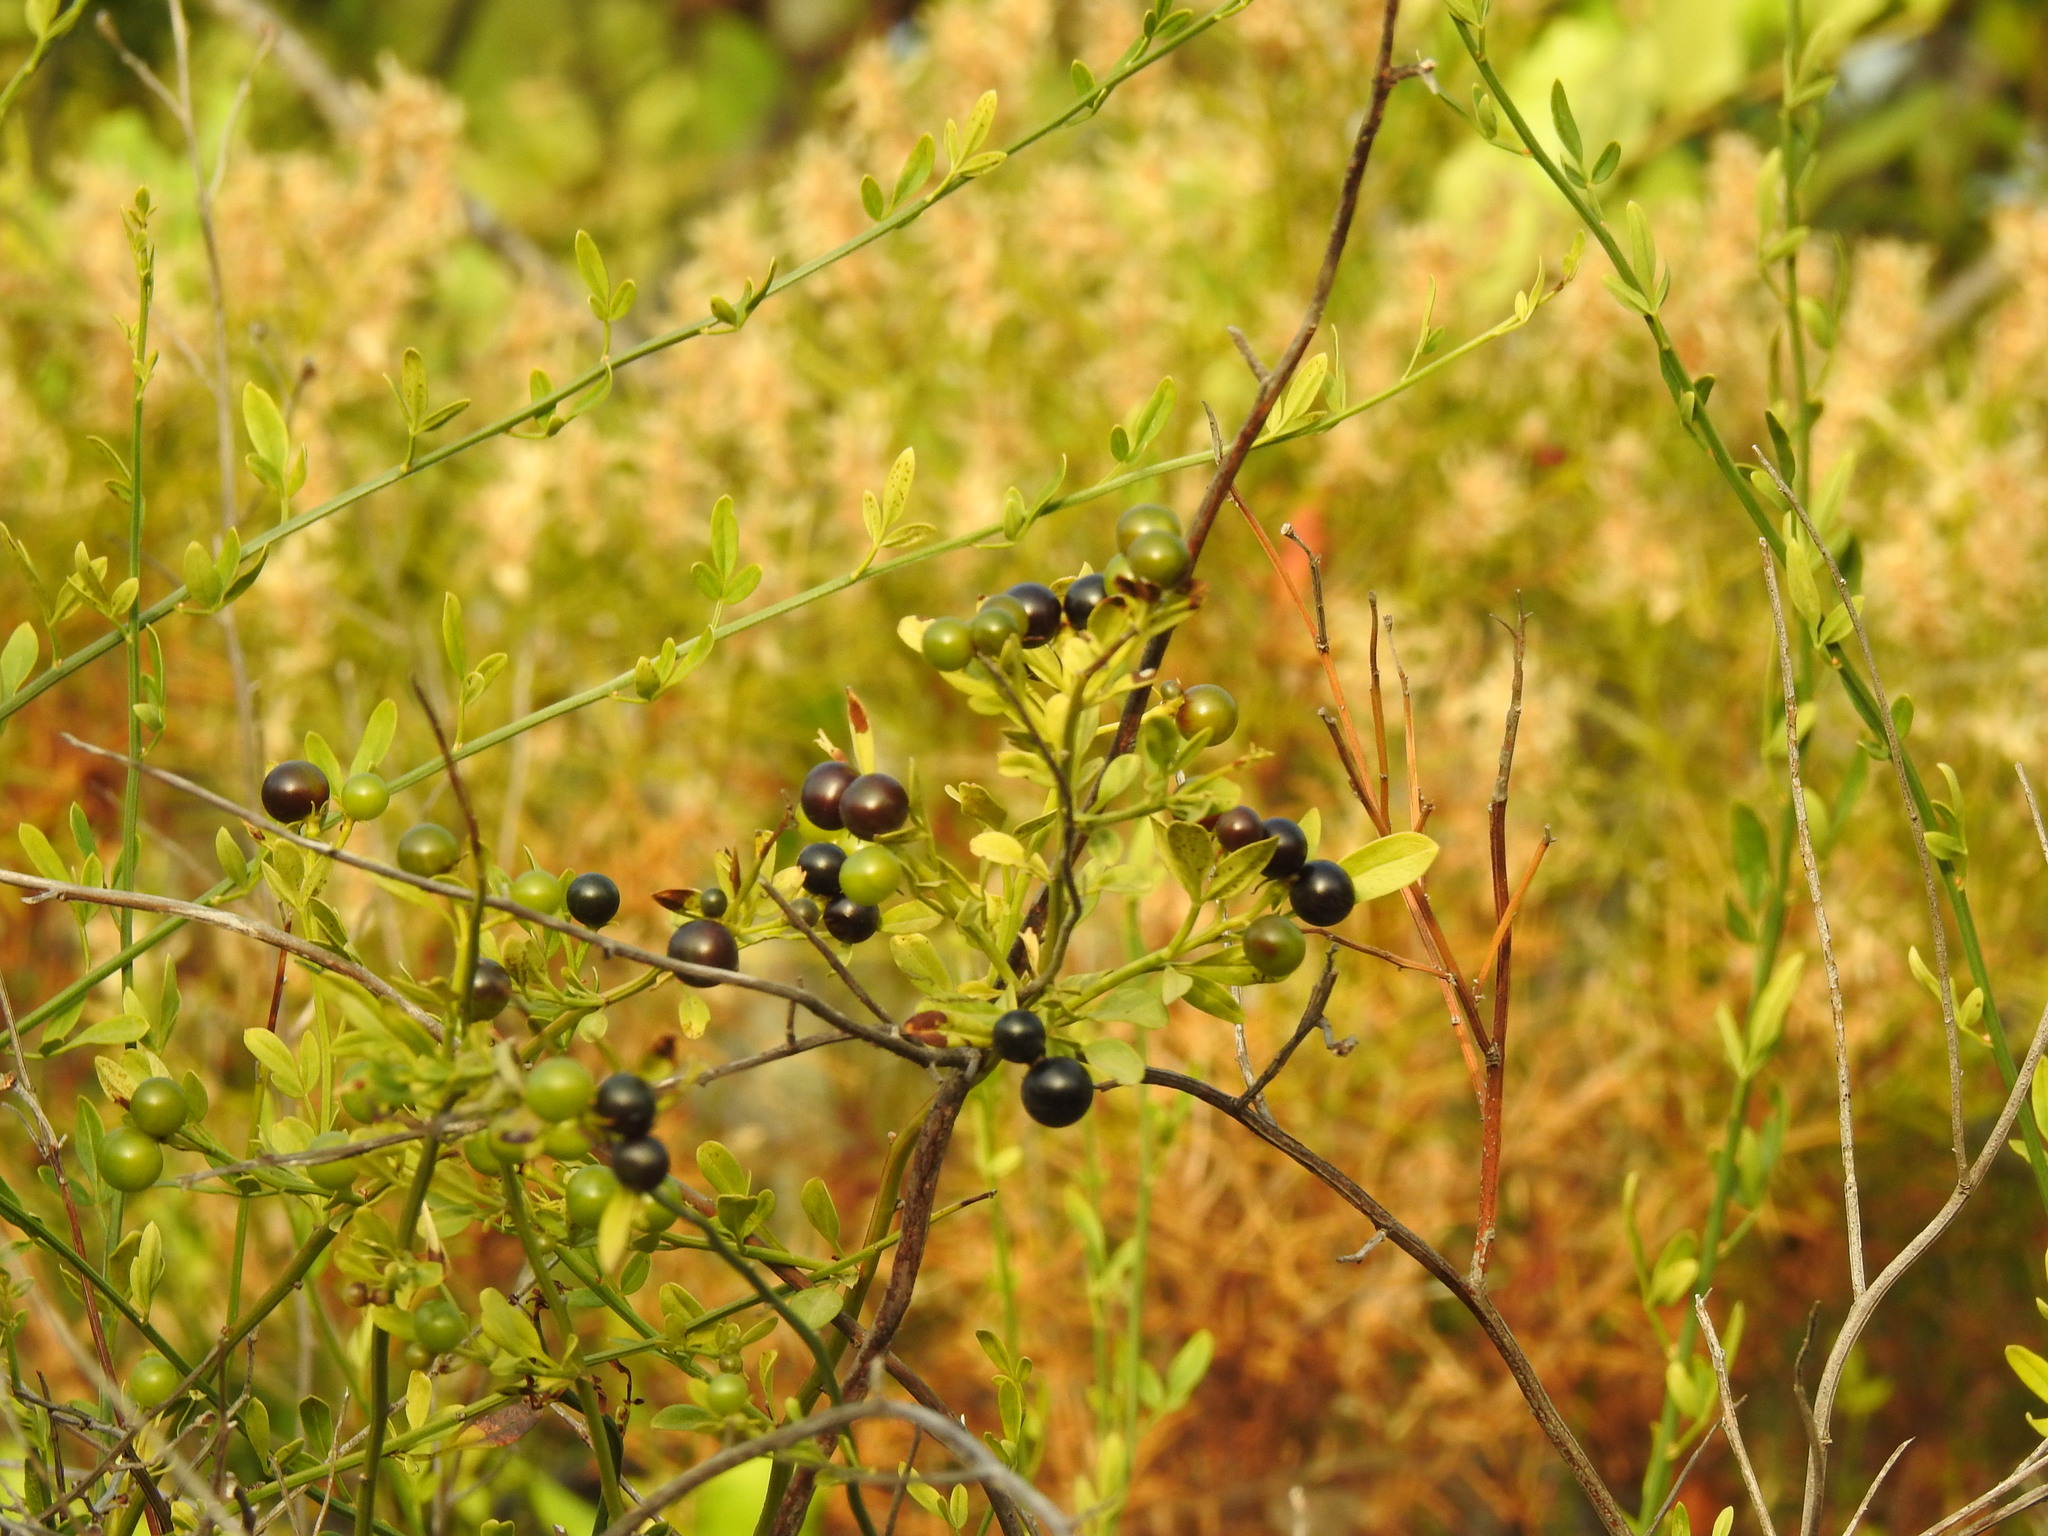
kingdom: Plantae
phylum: Tracheophyta
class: Magnoliopsida
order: Lamiales
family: Oleaceae
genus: Chrysojasminum
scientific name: Chrysojasminum fruticans
